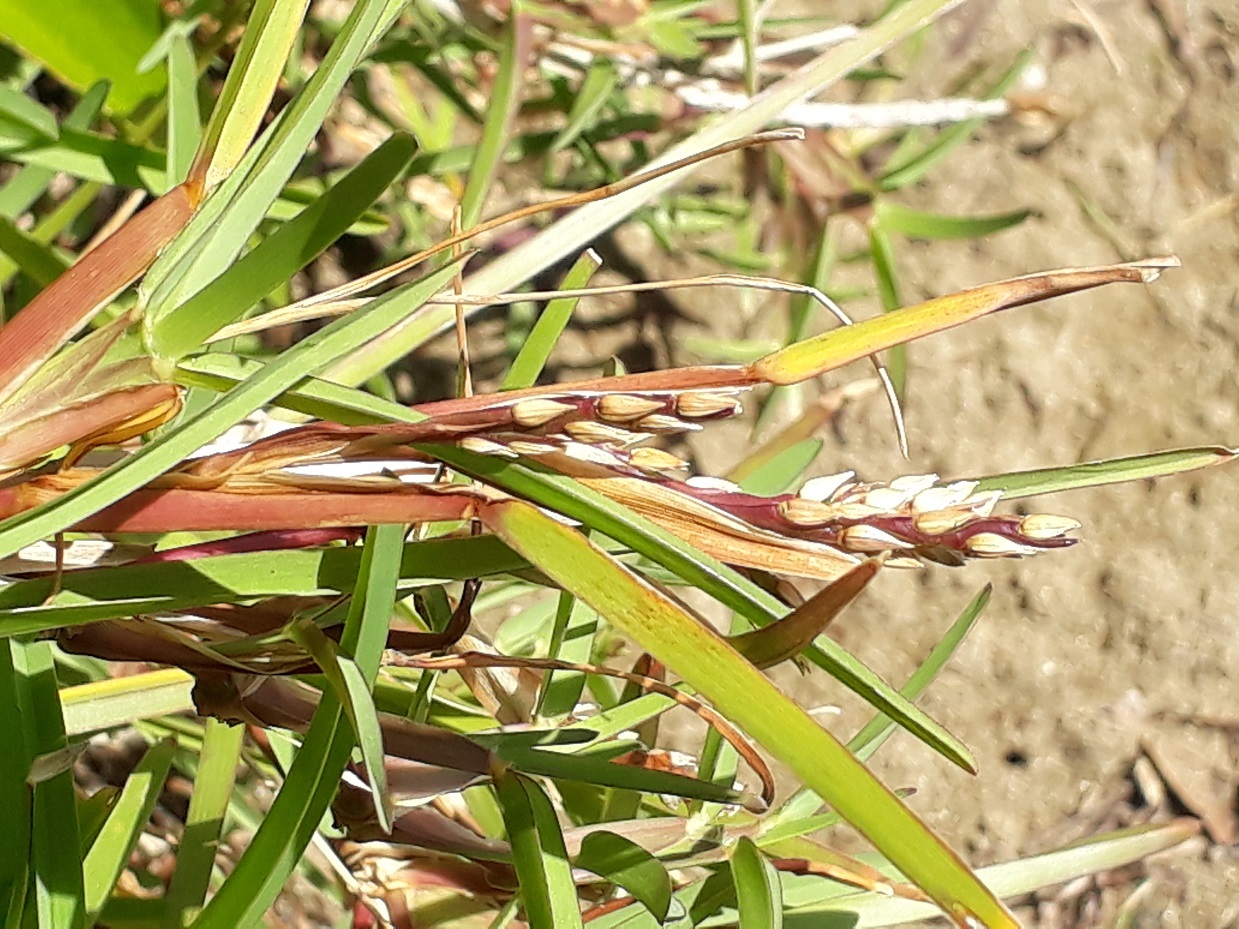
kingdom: Plantae
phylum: Tracheophyta
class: Liliopsida
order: Poales
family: Poaceae
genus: Stenotaphrum
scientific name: Stenotaphrum secundatum
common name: St. augustine grass
